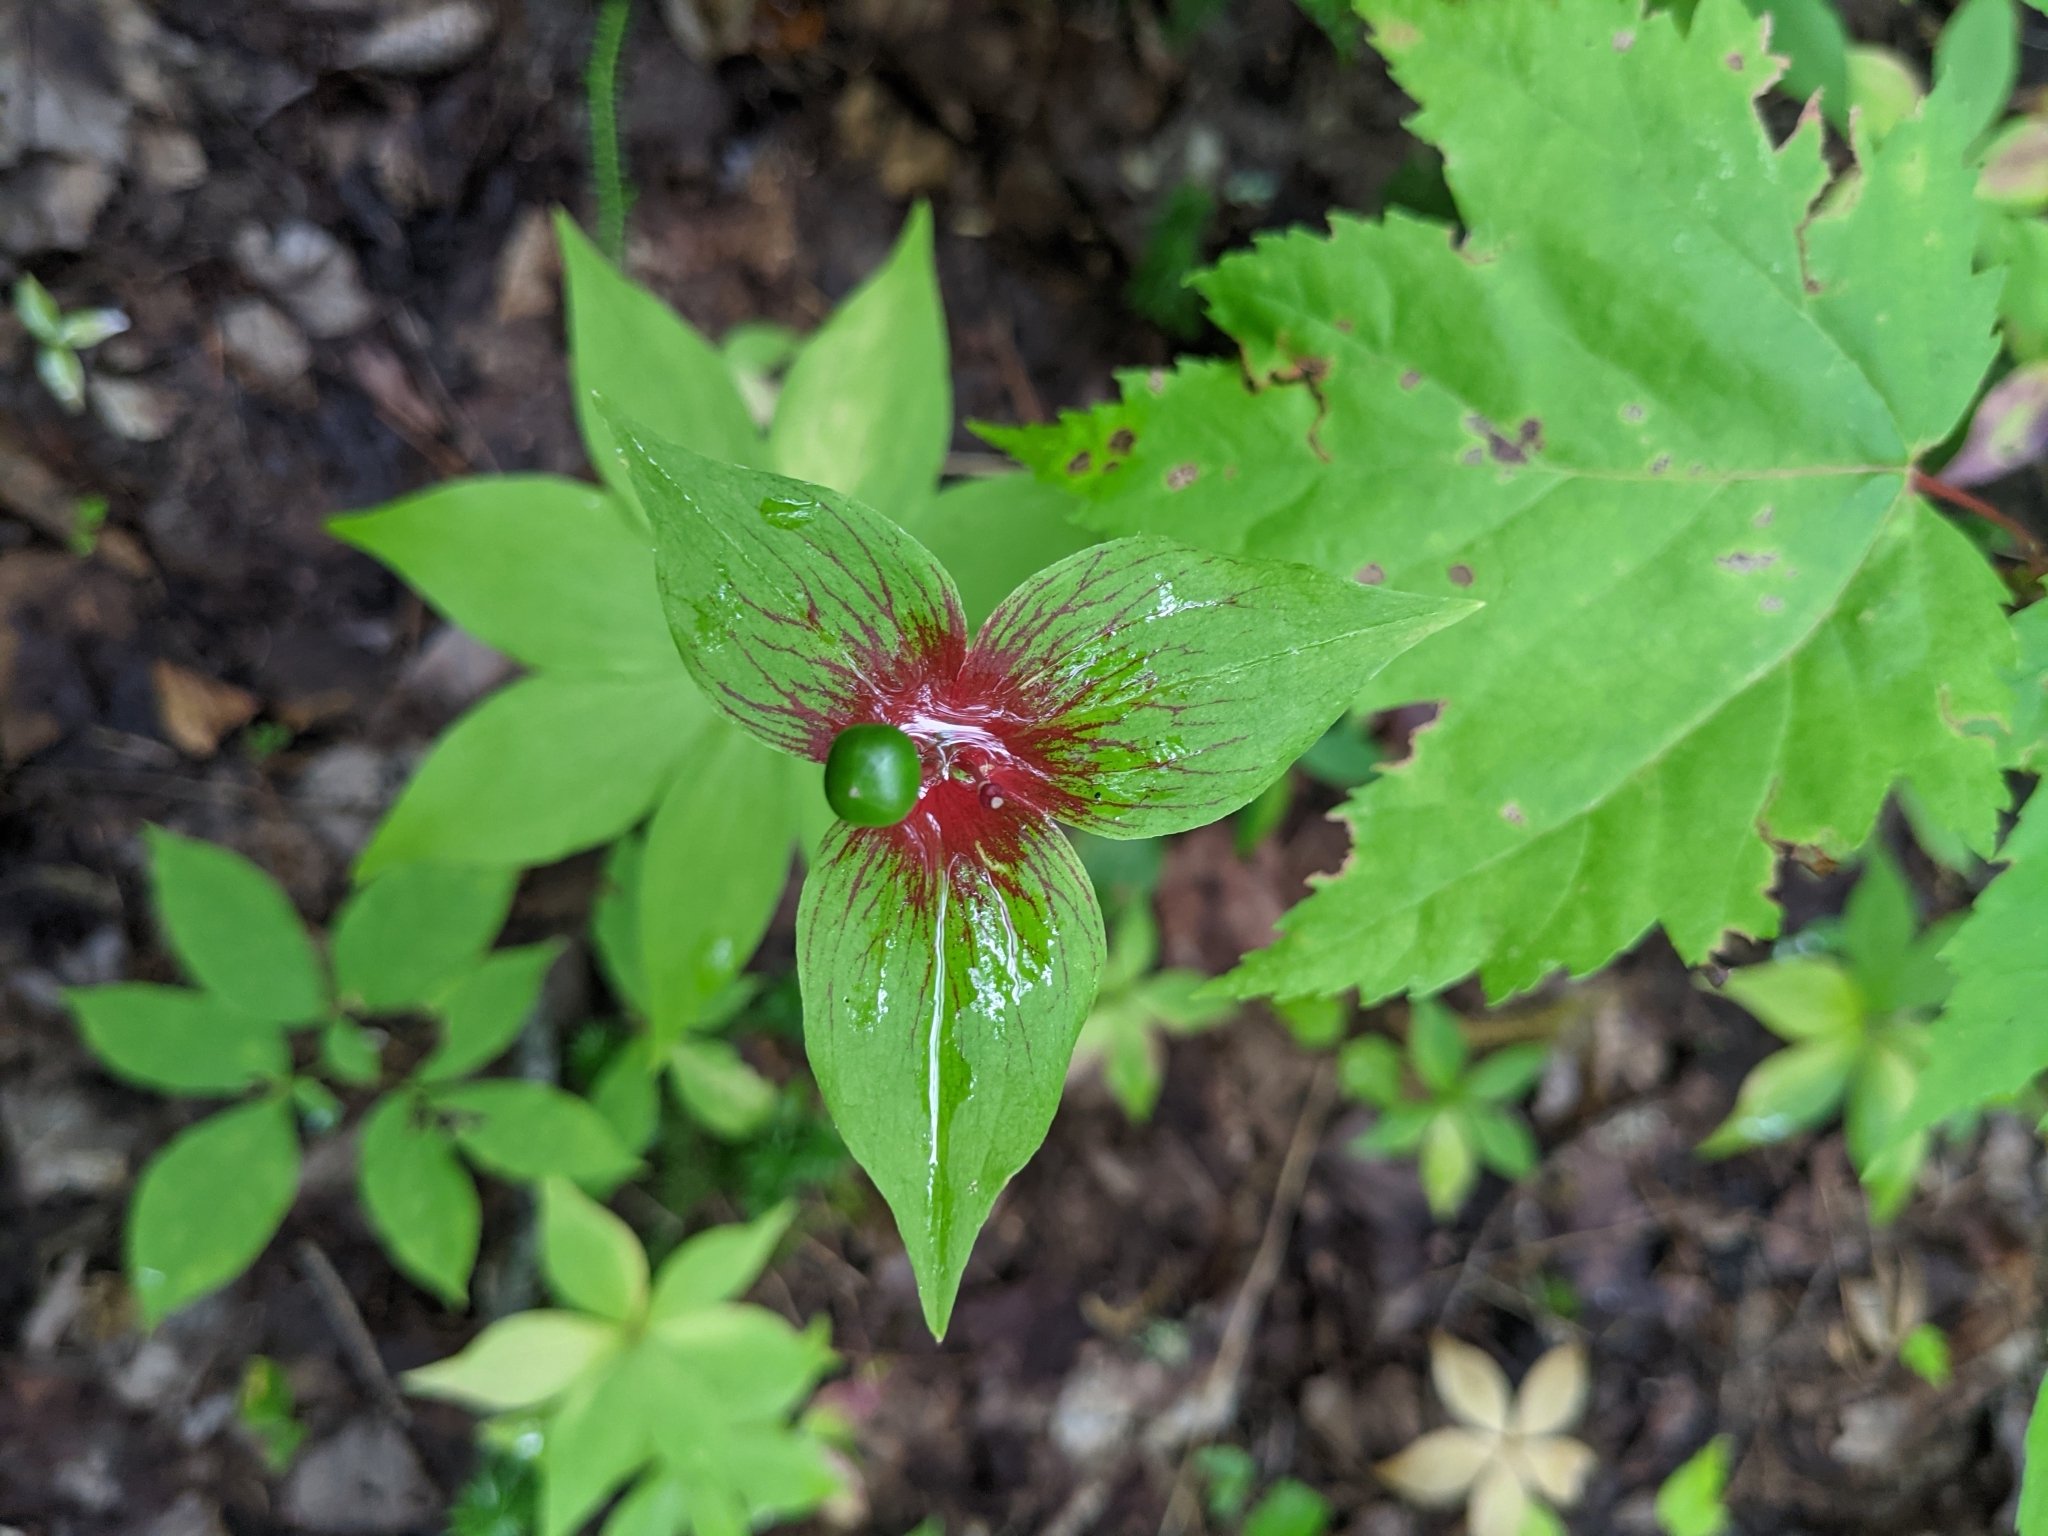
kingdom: Plantae
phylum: Tracheophyta
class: Liliopsida
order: Liliales
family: Liliaceae
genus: Medeola
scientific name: Medeola virginiana
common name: Indian cucumber-root
